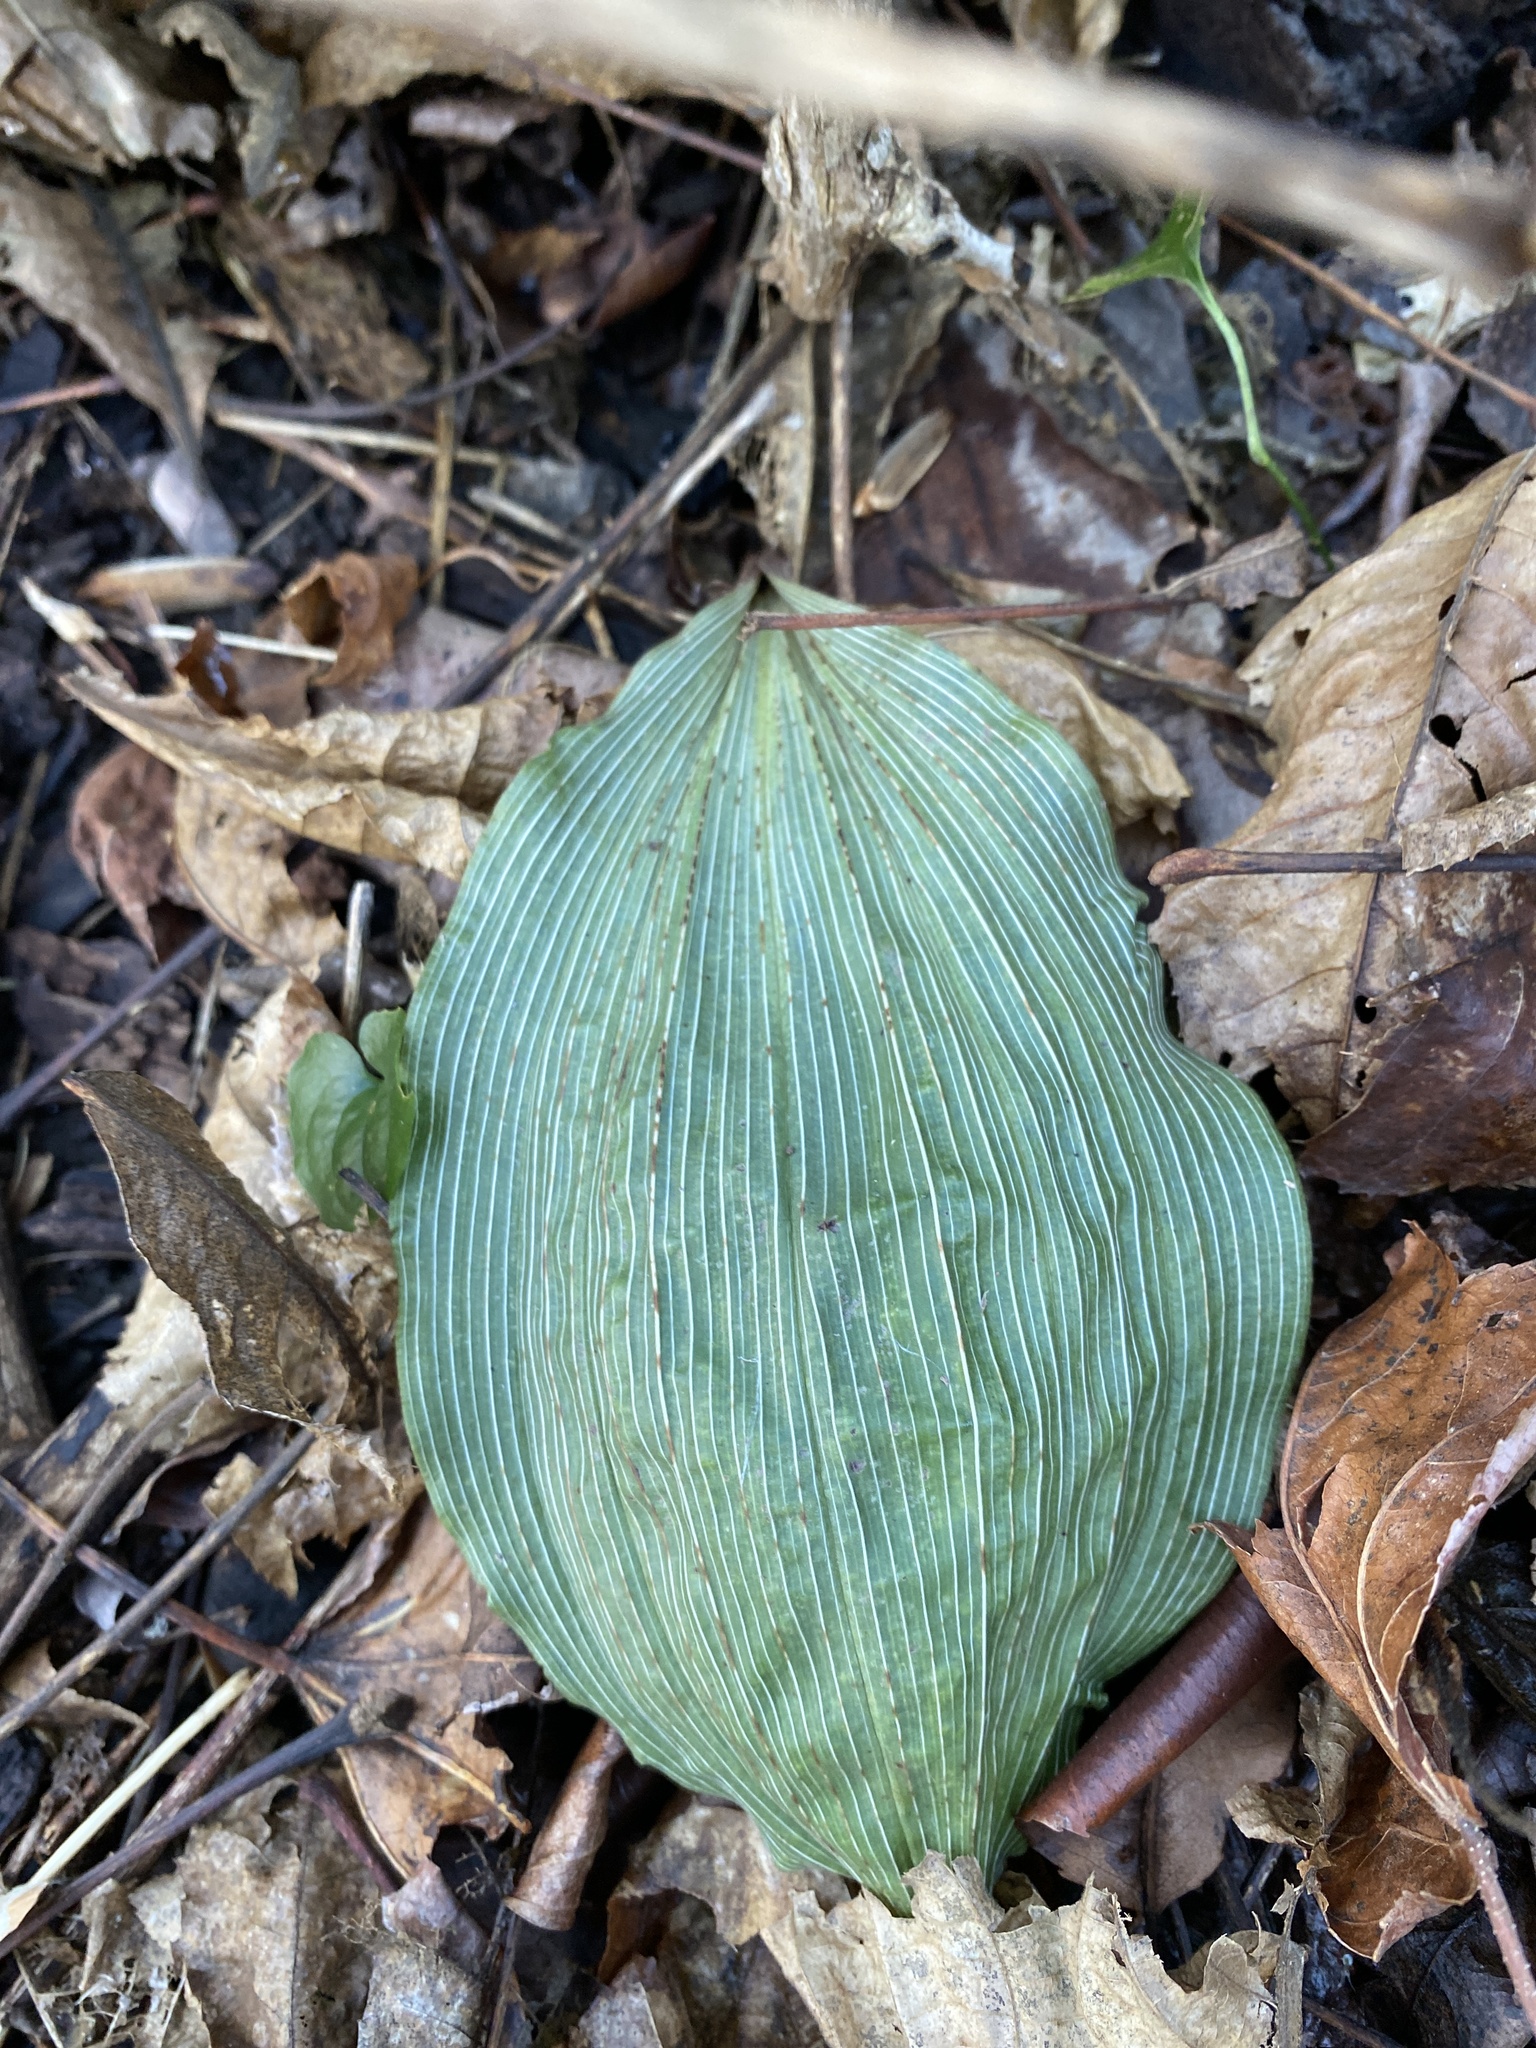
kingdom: Plantae
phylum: Tracheophyta
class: Liliopsida
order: Asparagales
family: Orchidaceae
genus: Aplectrum
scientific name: Aplectrum hyemale
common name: Adam-and-eve
